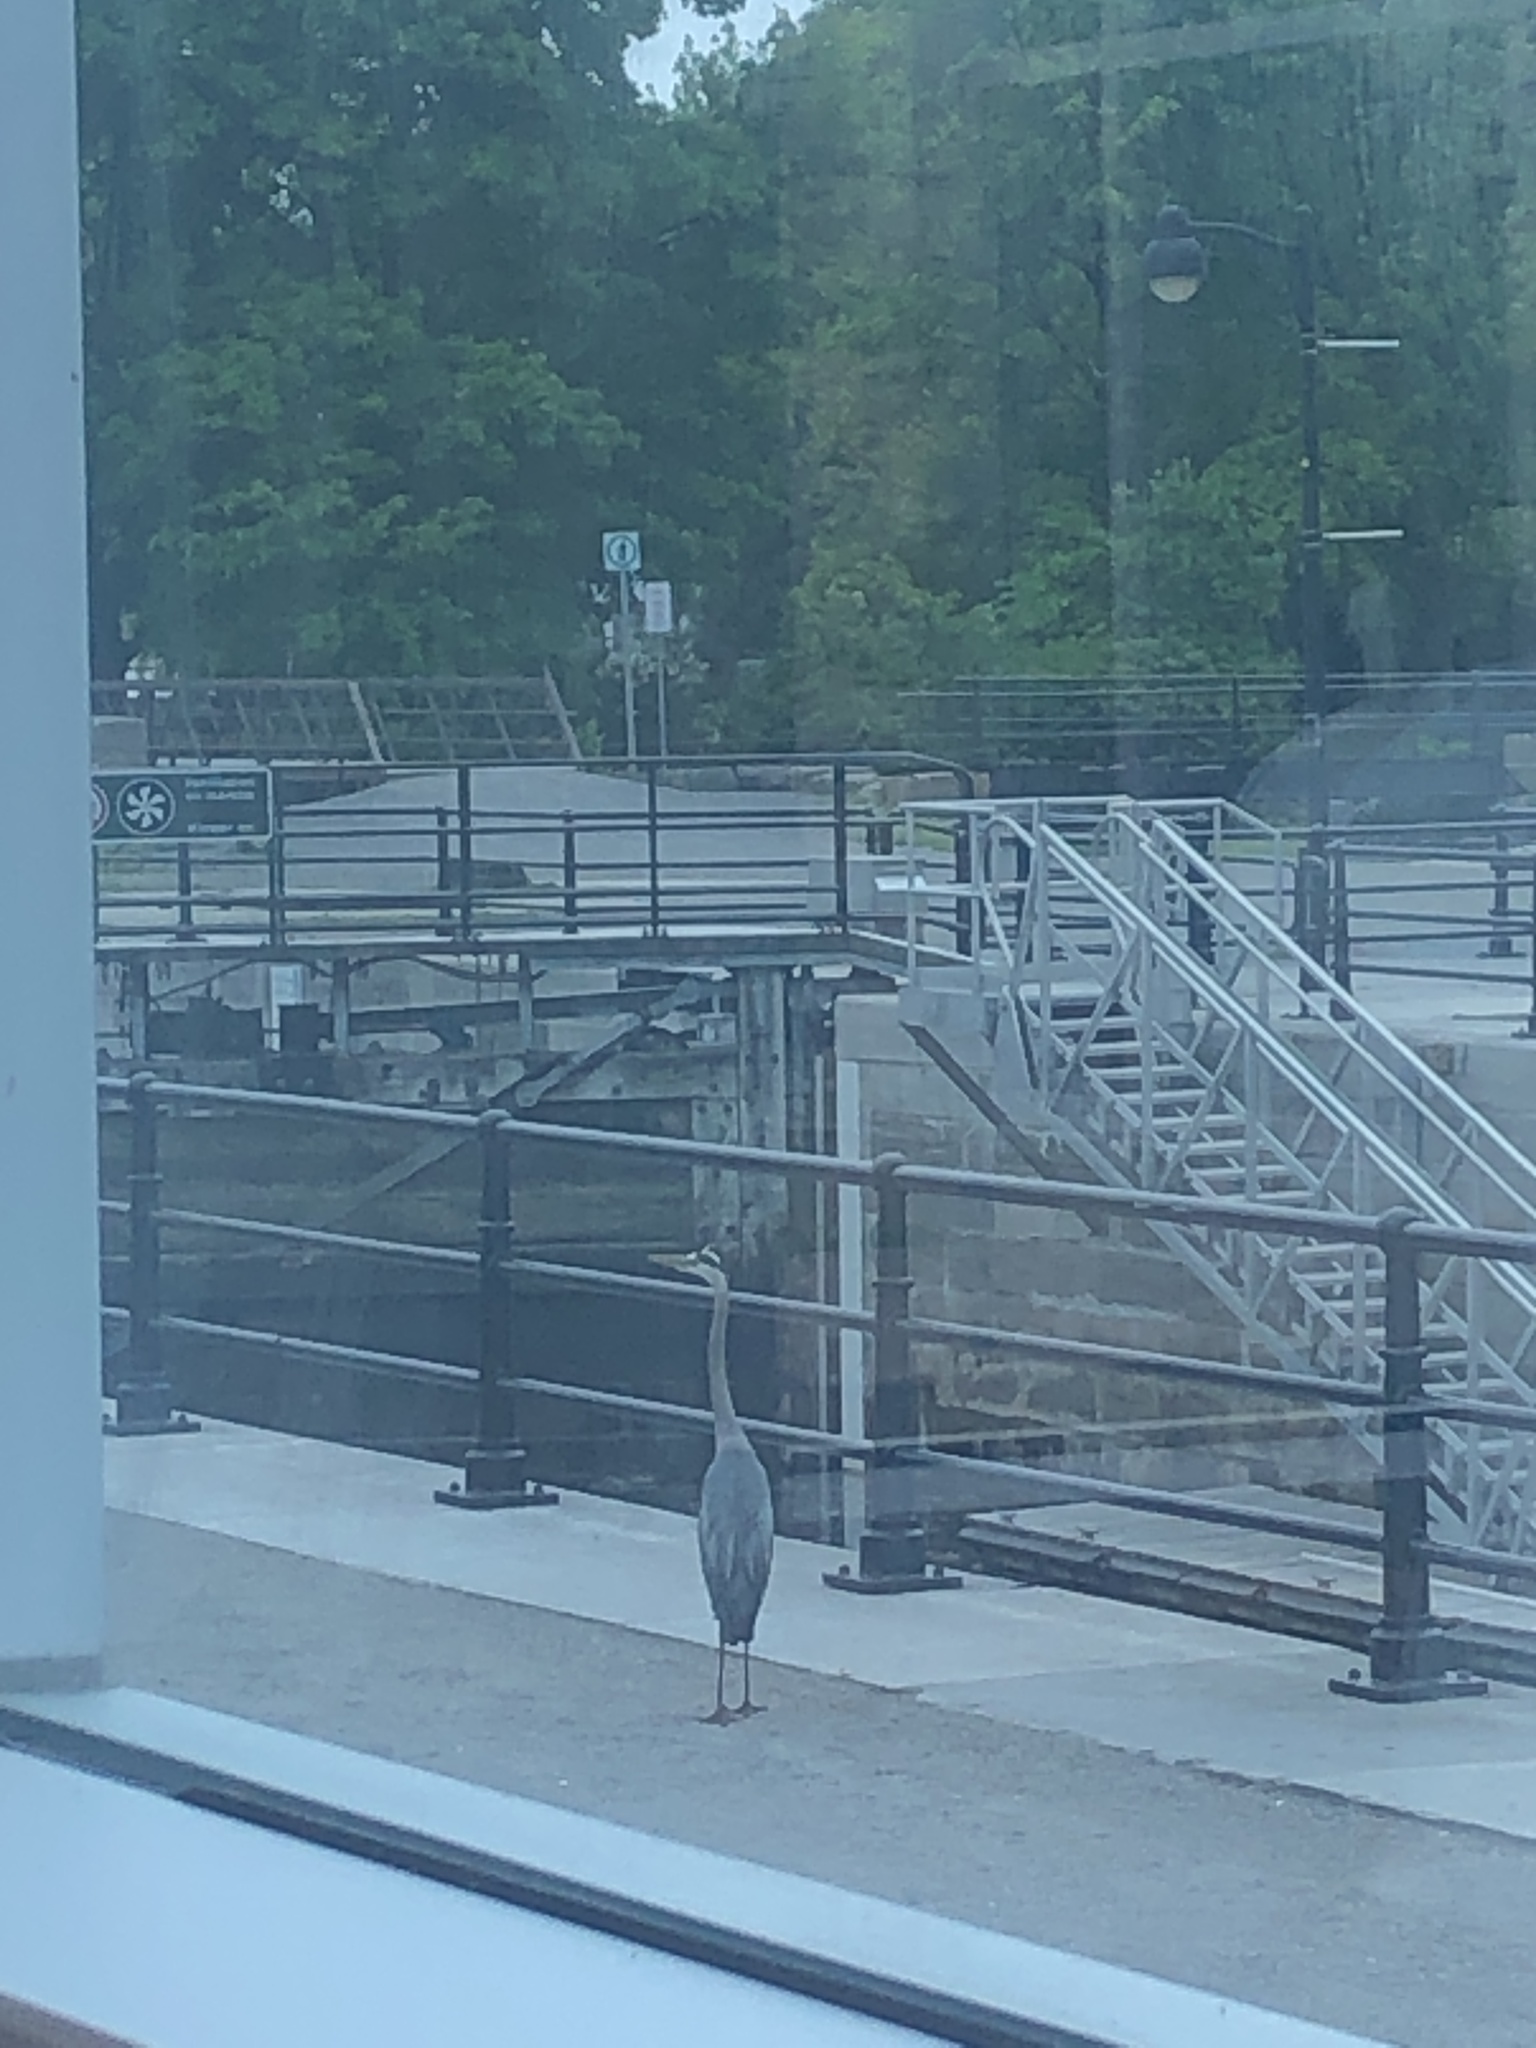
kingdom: Animalia
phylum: Chordata
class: Aves
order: Pelecaniformes
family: Ardeidae
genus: Ardea
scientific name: Ardea herodias
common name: Great blue heron
